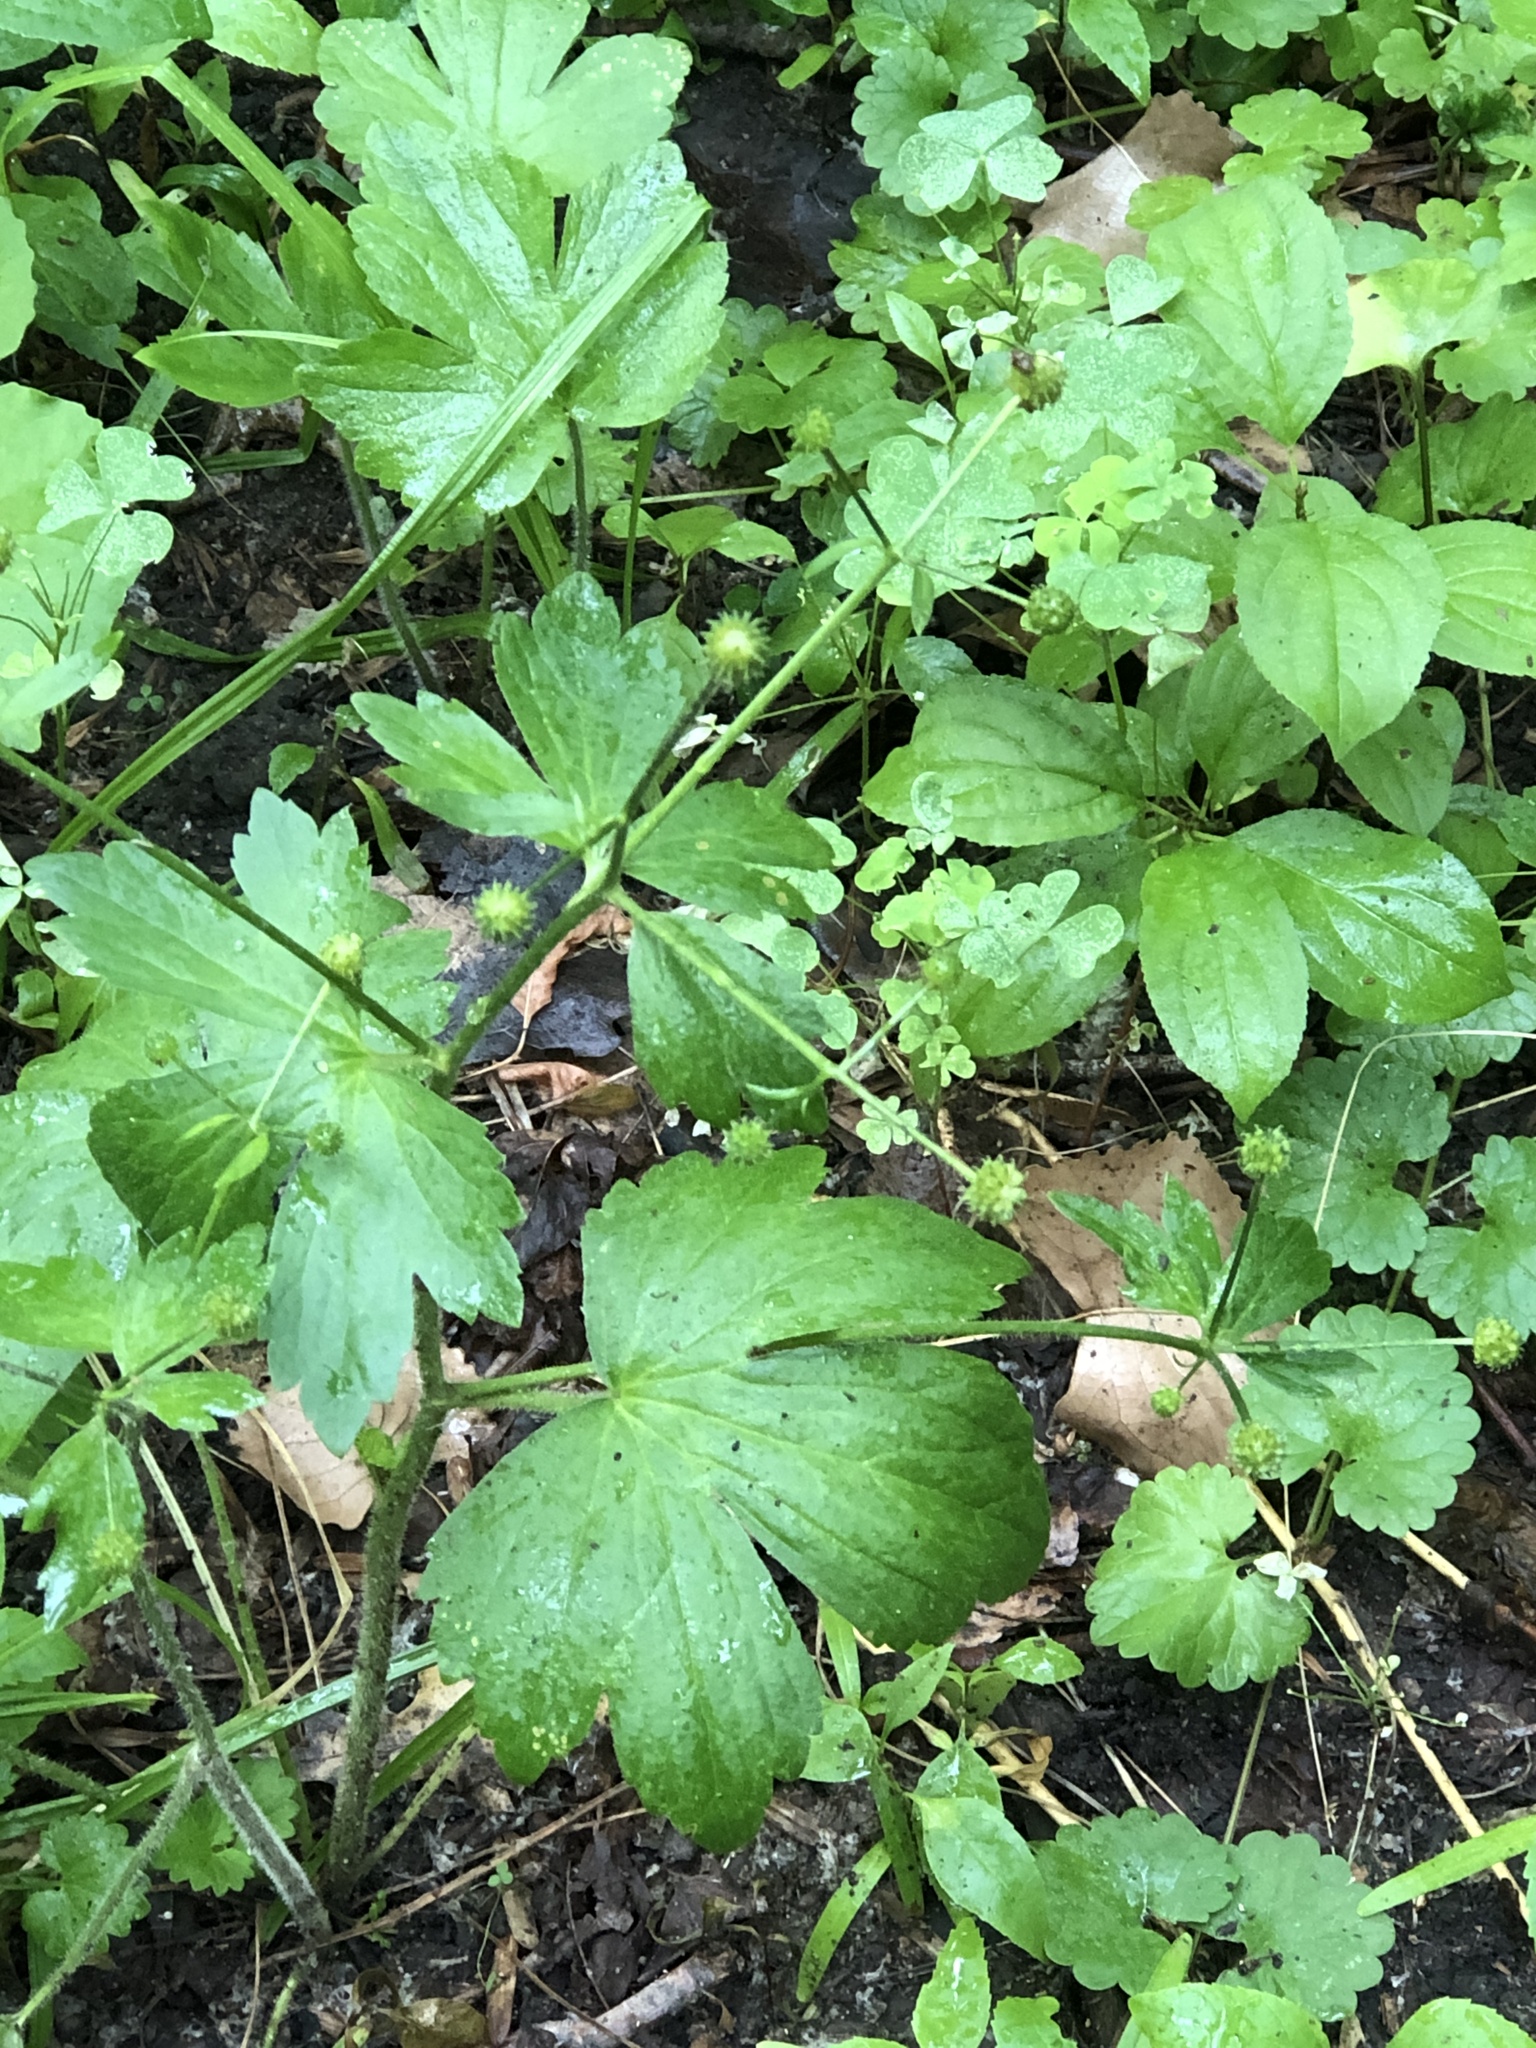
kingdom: Plantae
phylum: Tracheophyta
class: Magnoliopsida
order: Ranunculales
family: Ranunculaceae
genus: Ranunculus
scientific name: Ranunculus recurvatus
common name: Blisterwort
